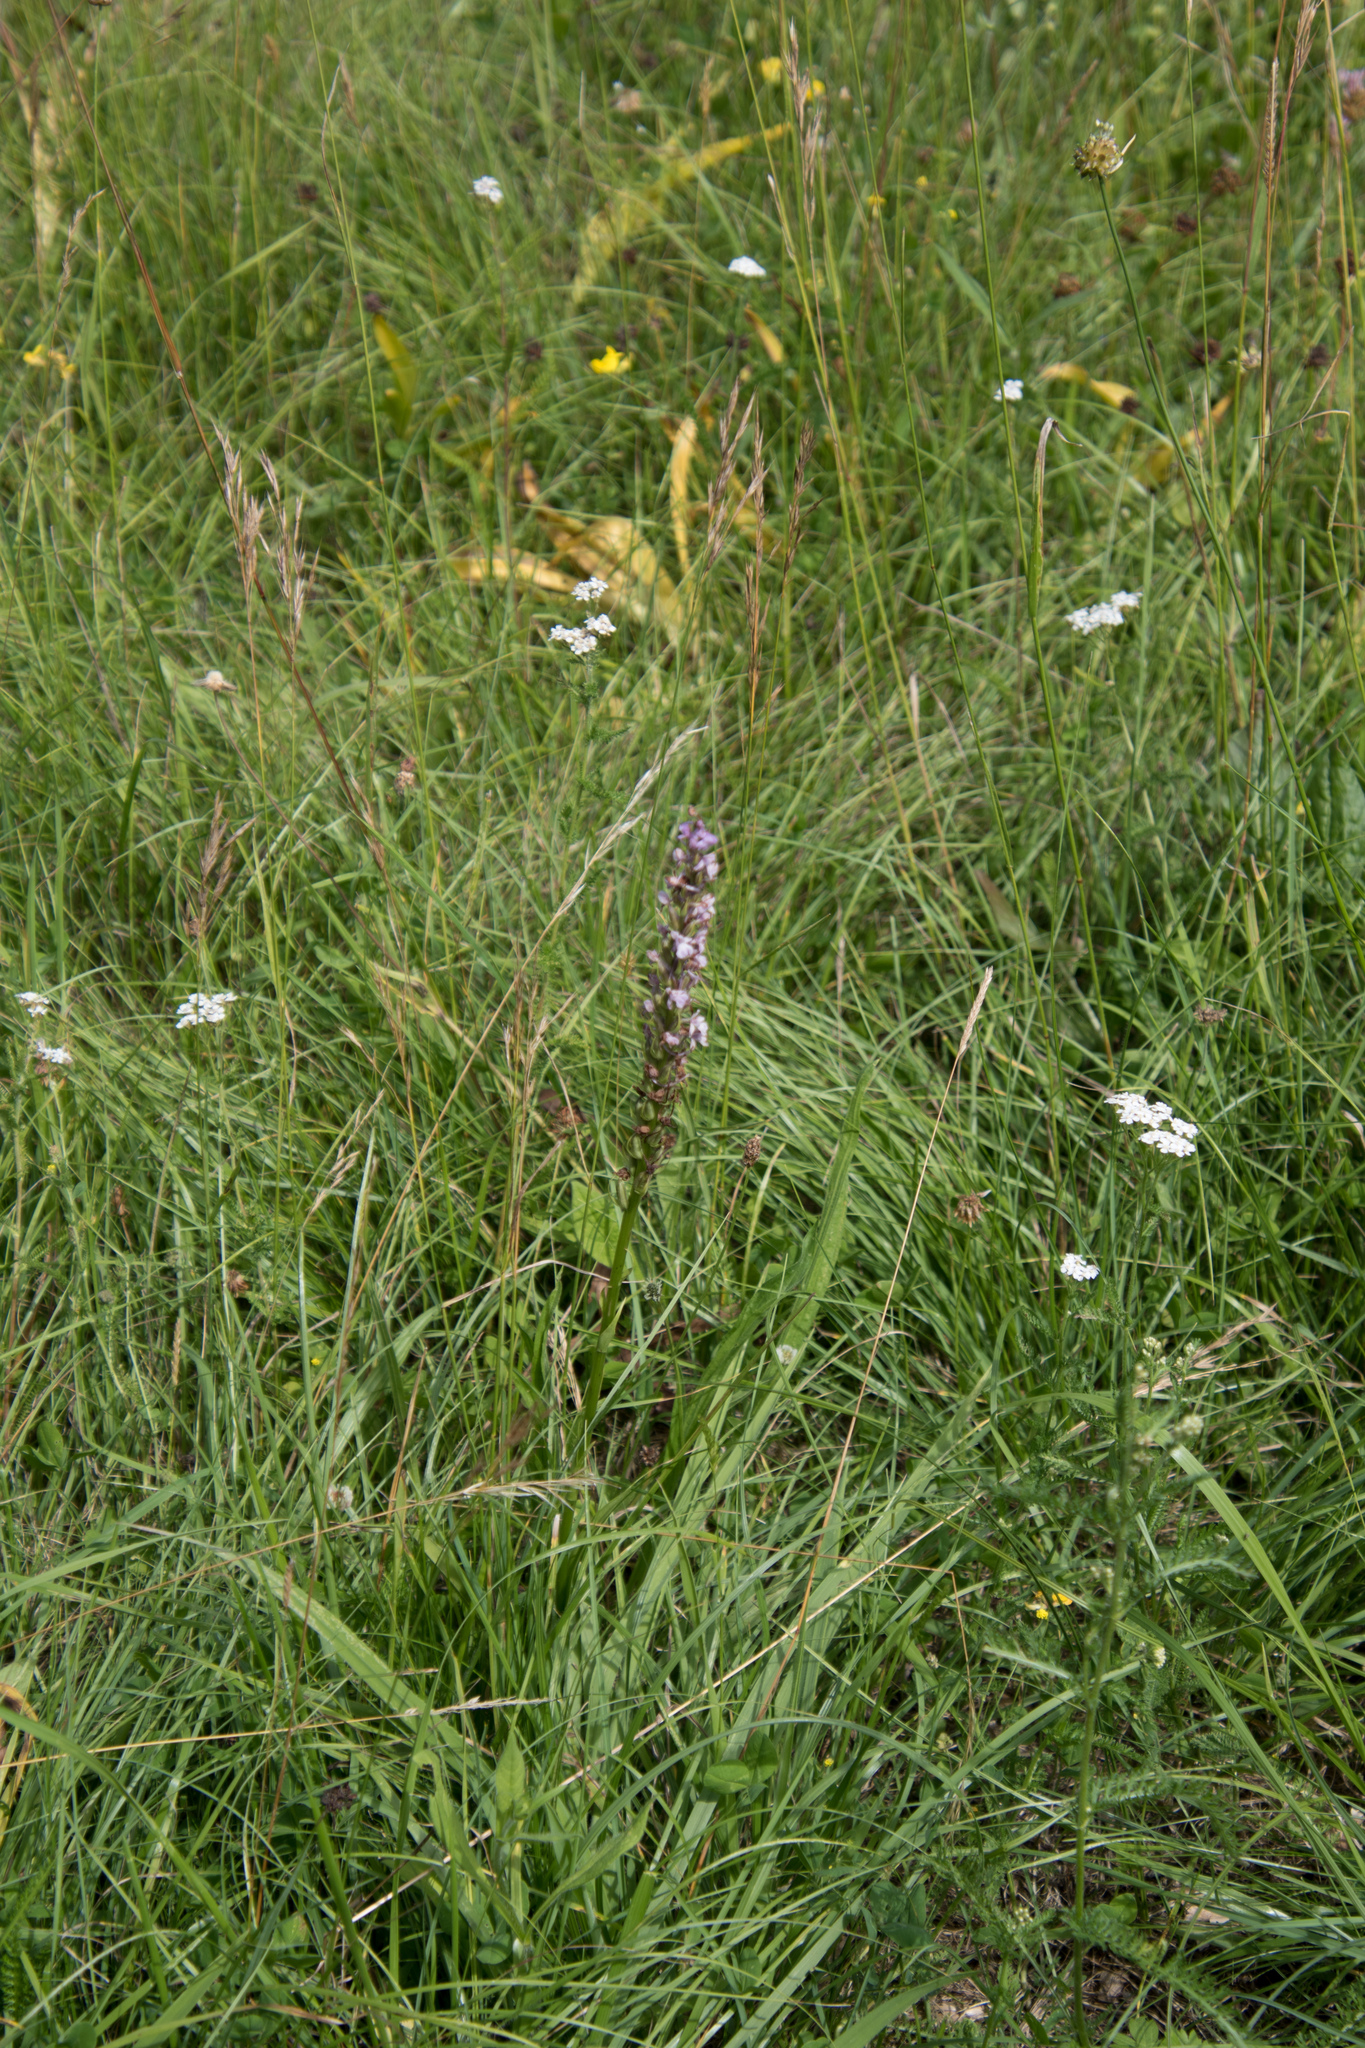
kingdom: Plantae
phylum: Tracheophyta
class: Liliopsida
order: Asparagales
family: Orchidaceae
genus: Gymnadenia
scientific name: Gymnadenia conopsea
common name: Fragrant orchid
